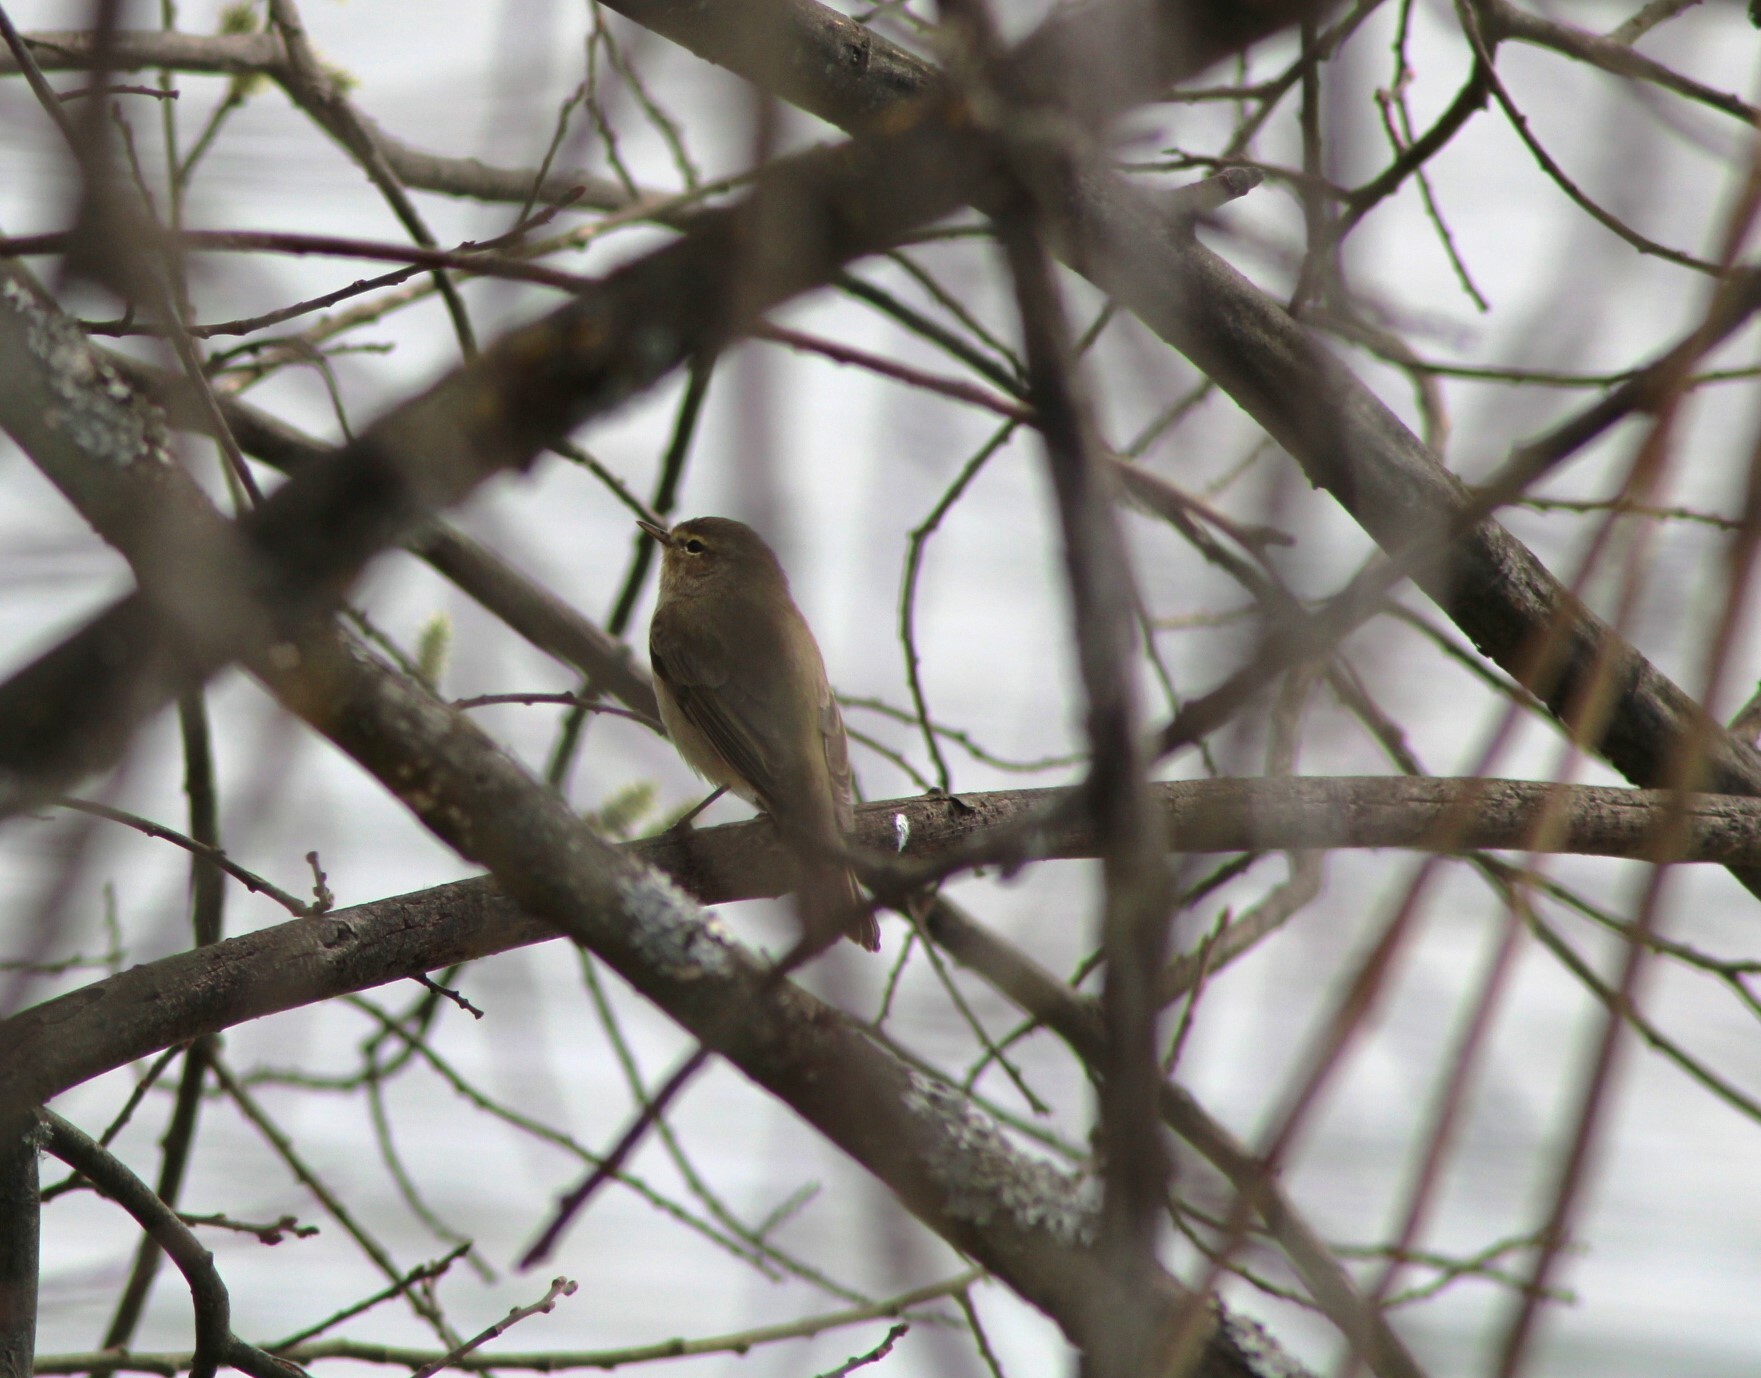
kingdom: Animalia
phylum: Chordata
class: Aves
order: Passeriformes
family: Phylloscopidae
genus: Phylloscopus
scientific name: Phylloscopus collybita
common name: Common chiffchaff
